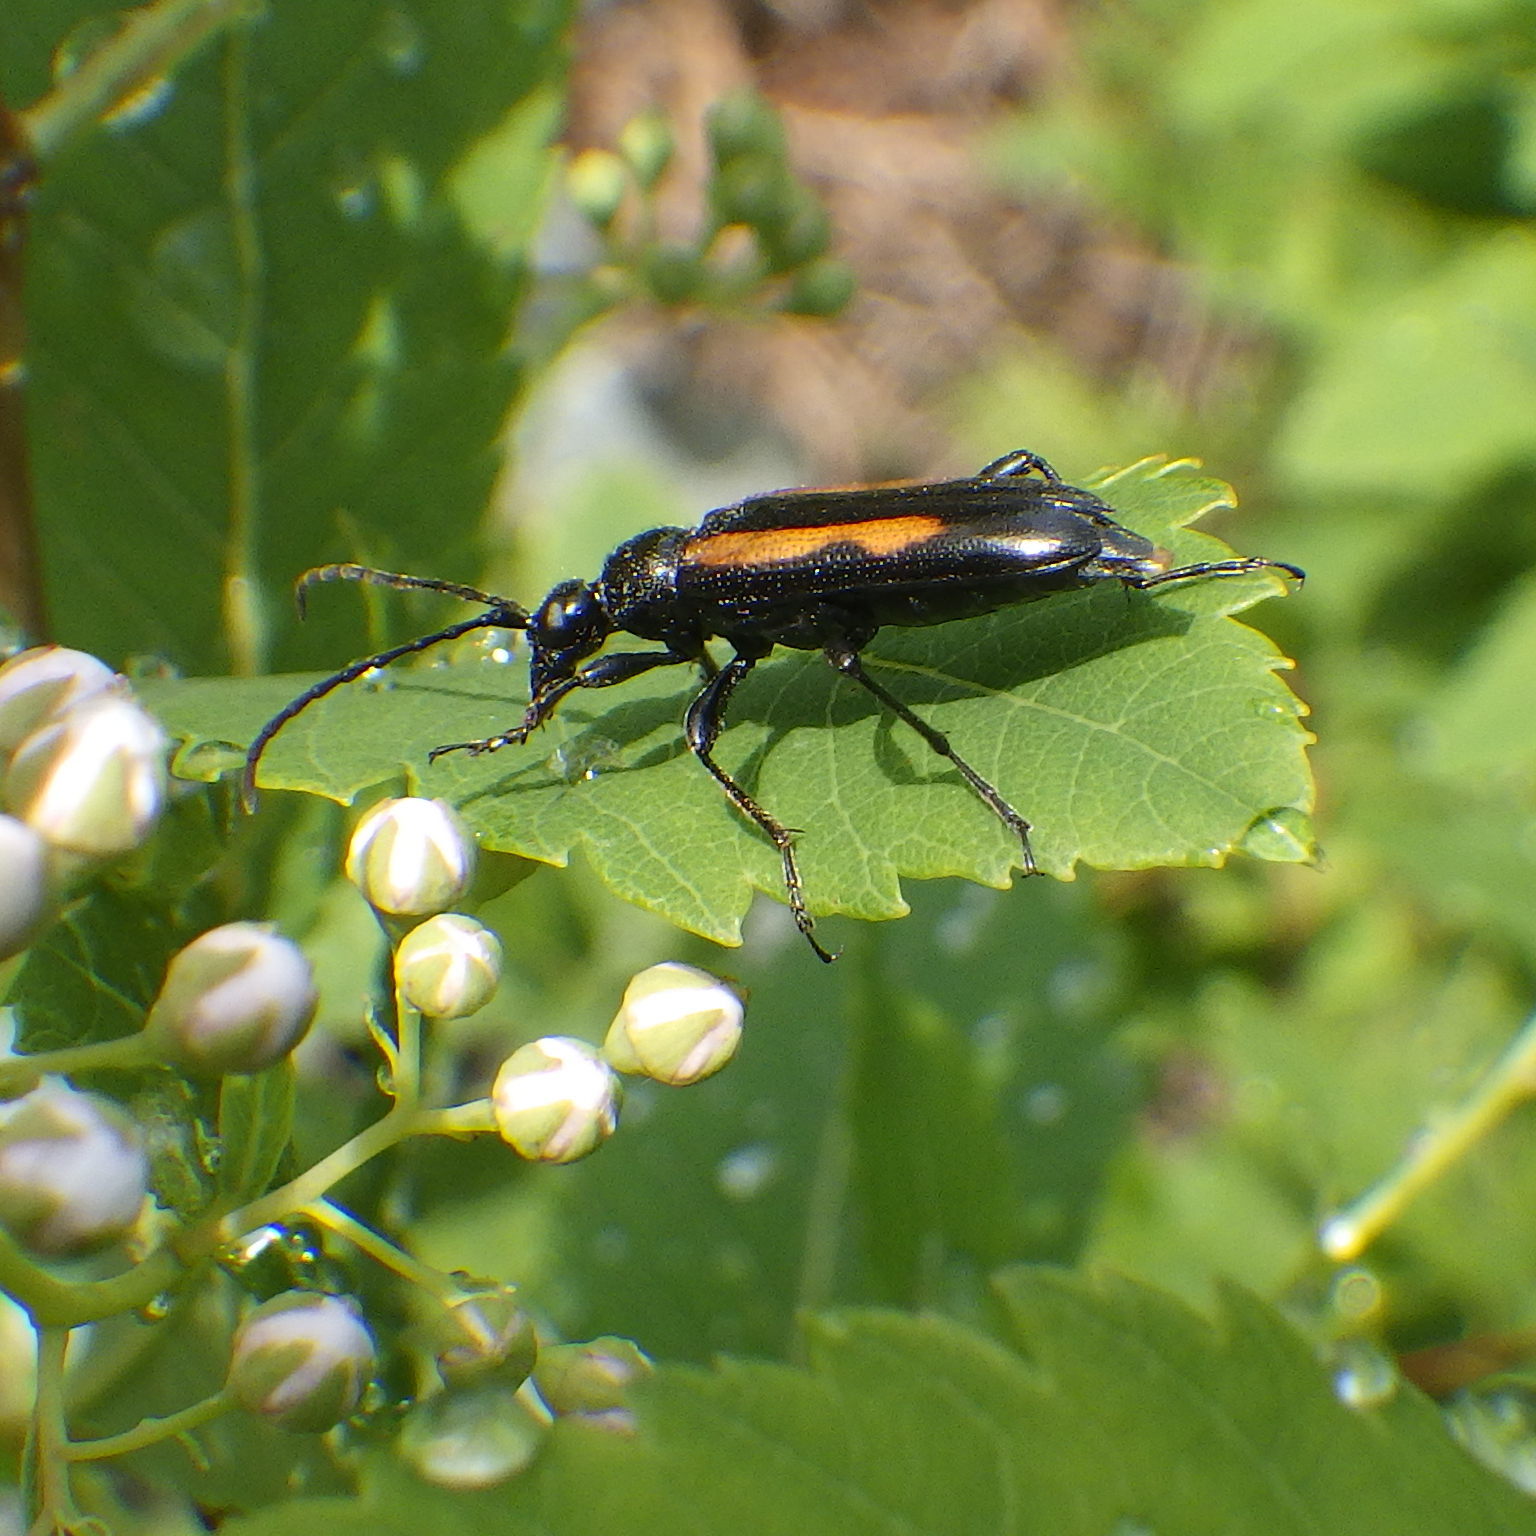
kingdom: Animalia
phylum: Arthropoda
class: Insecta
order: Coleoptera
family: Cerambycidae
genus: Strangalepta
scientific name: Strangalepta abbreviata
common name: Strangalepta flower longhorn beetle
